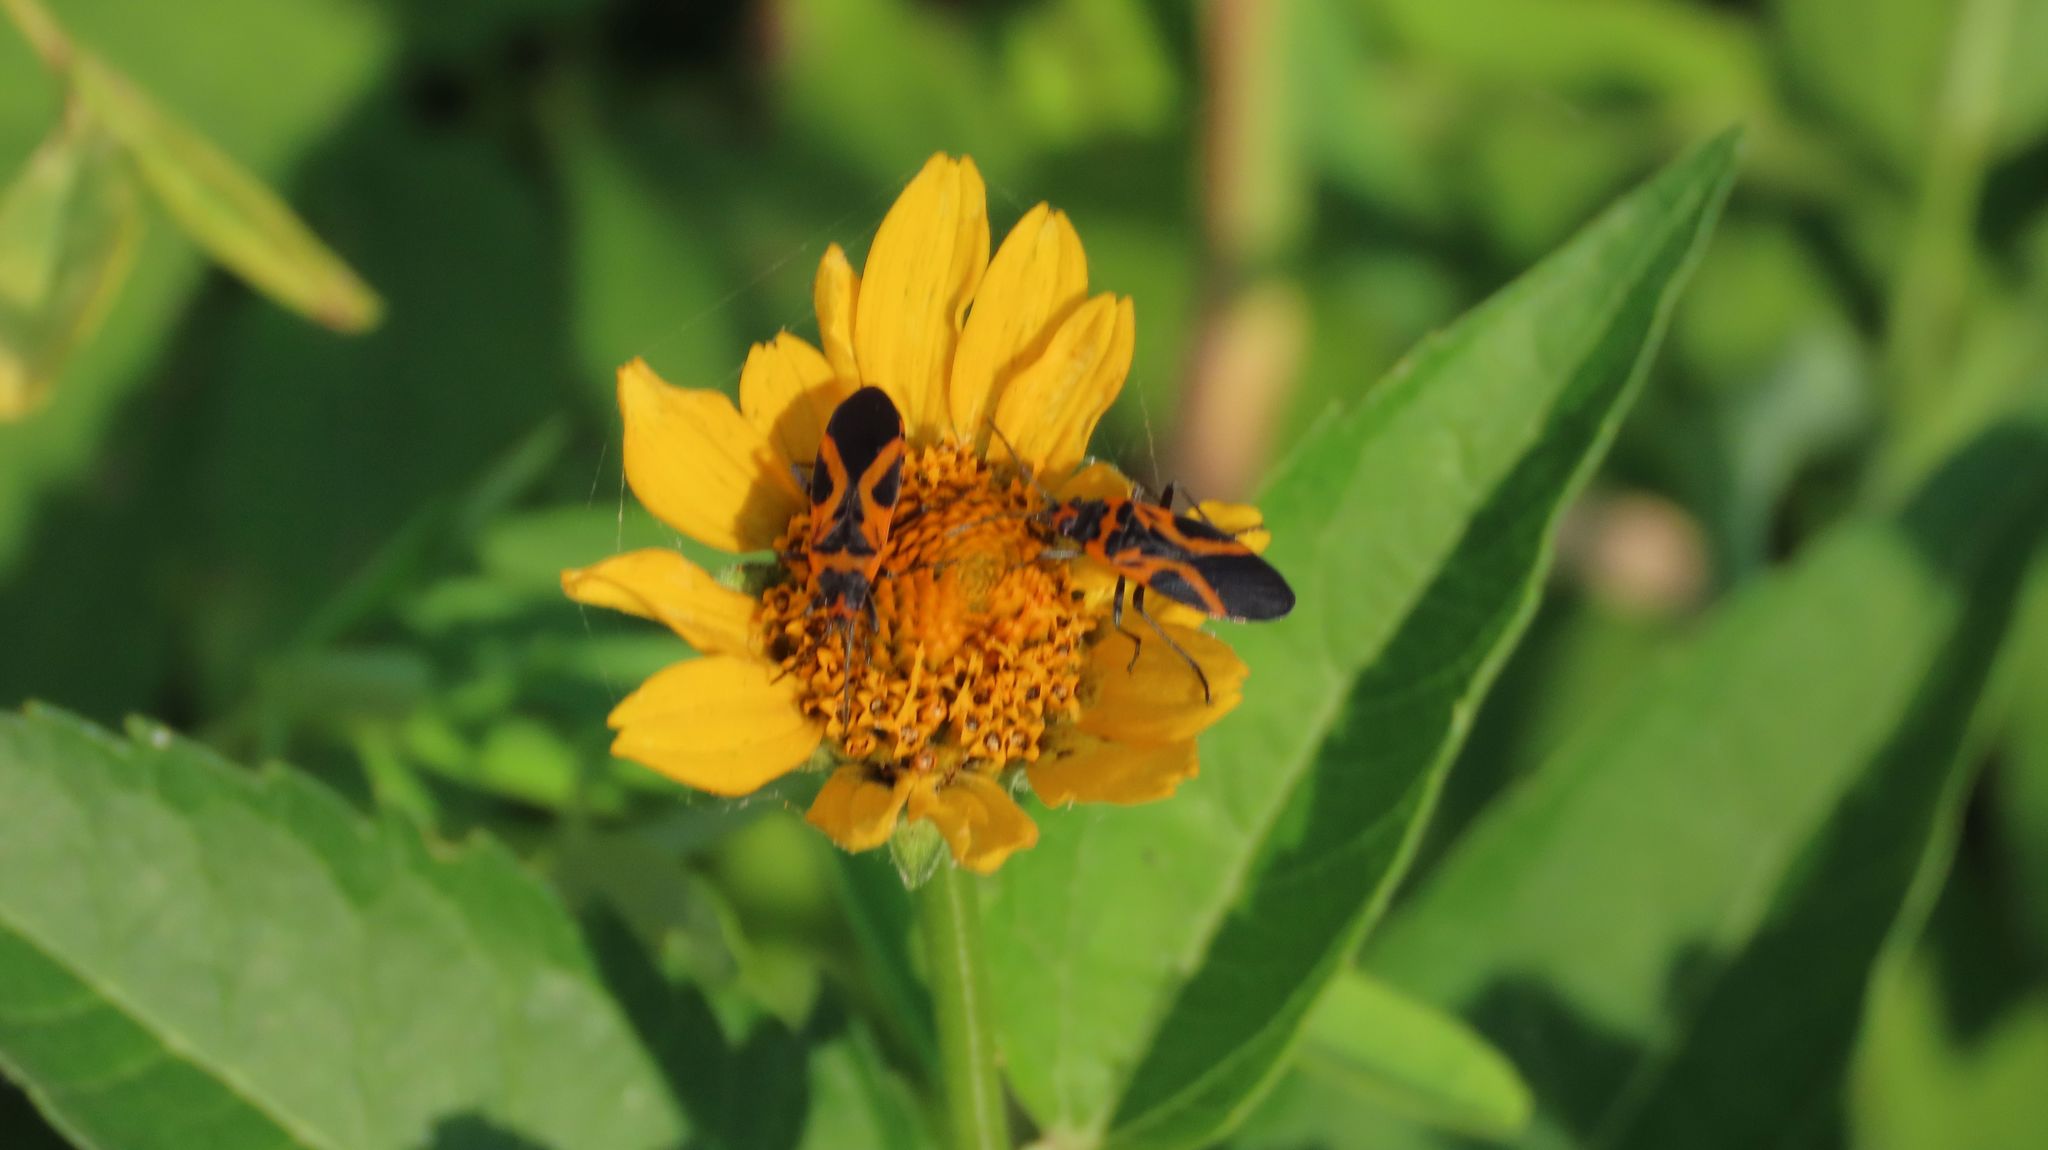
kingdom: Animalia
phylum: Arthropoda
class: Insecta
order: Hemiptera
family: Lygaeidae
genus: Lygaeus
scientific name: Lygaeus turcicus
